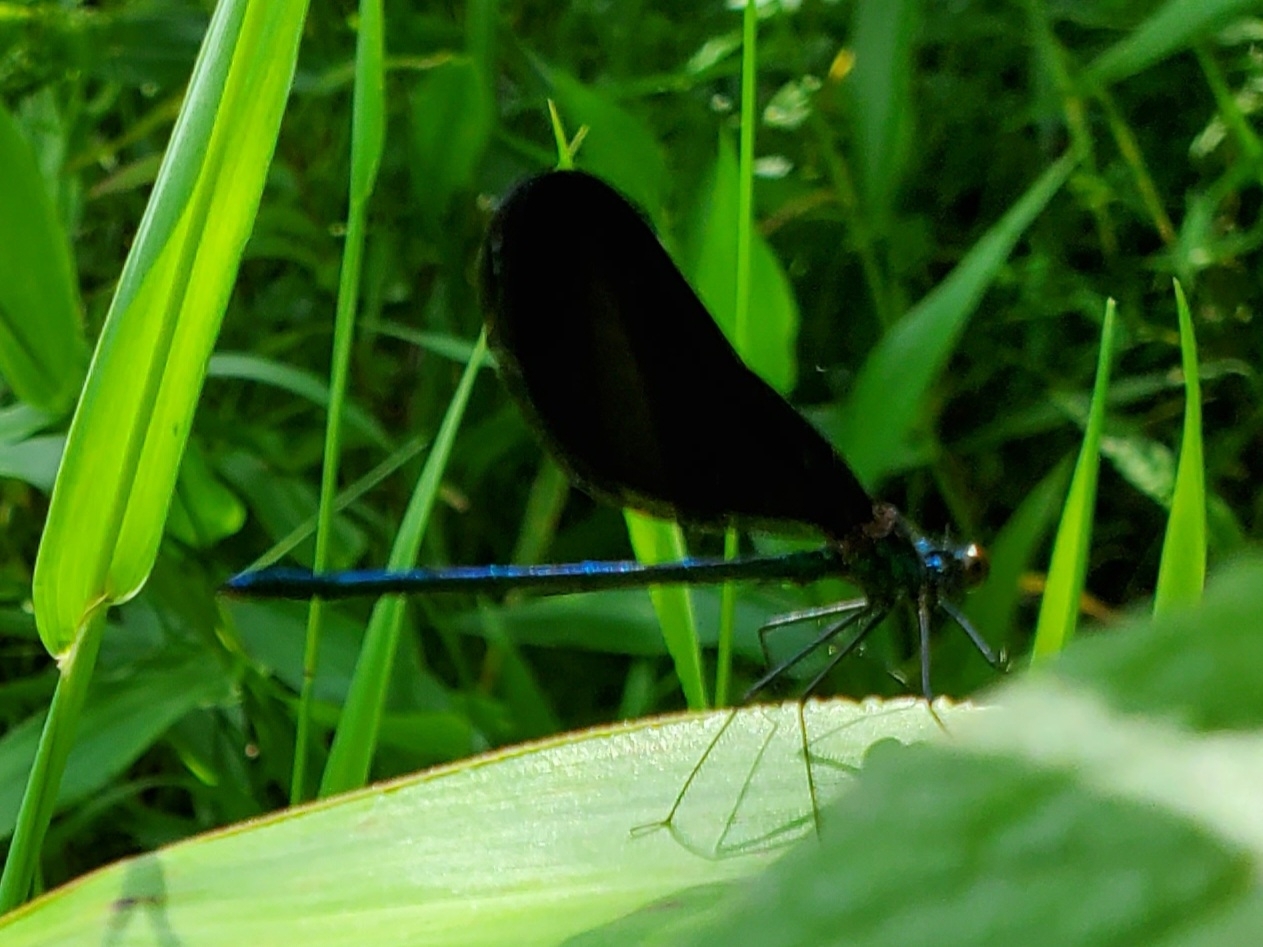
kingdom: Animalia
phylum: Arthropoda
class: Insecta
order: Odonata
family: Calopterygidae
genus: Calopteryx
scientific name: Calopteryx maculata
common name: Ebony jewelwing
